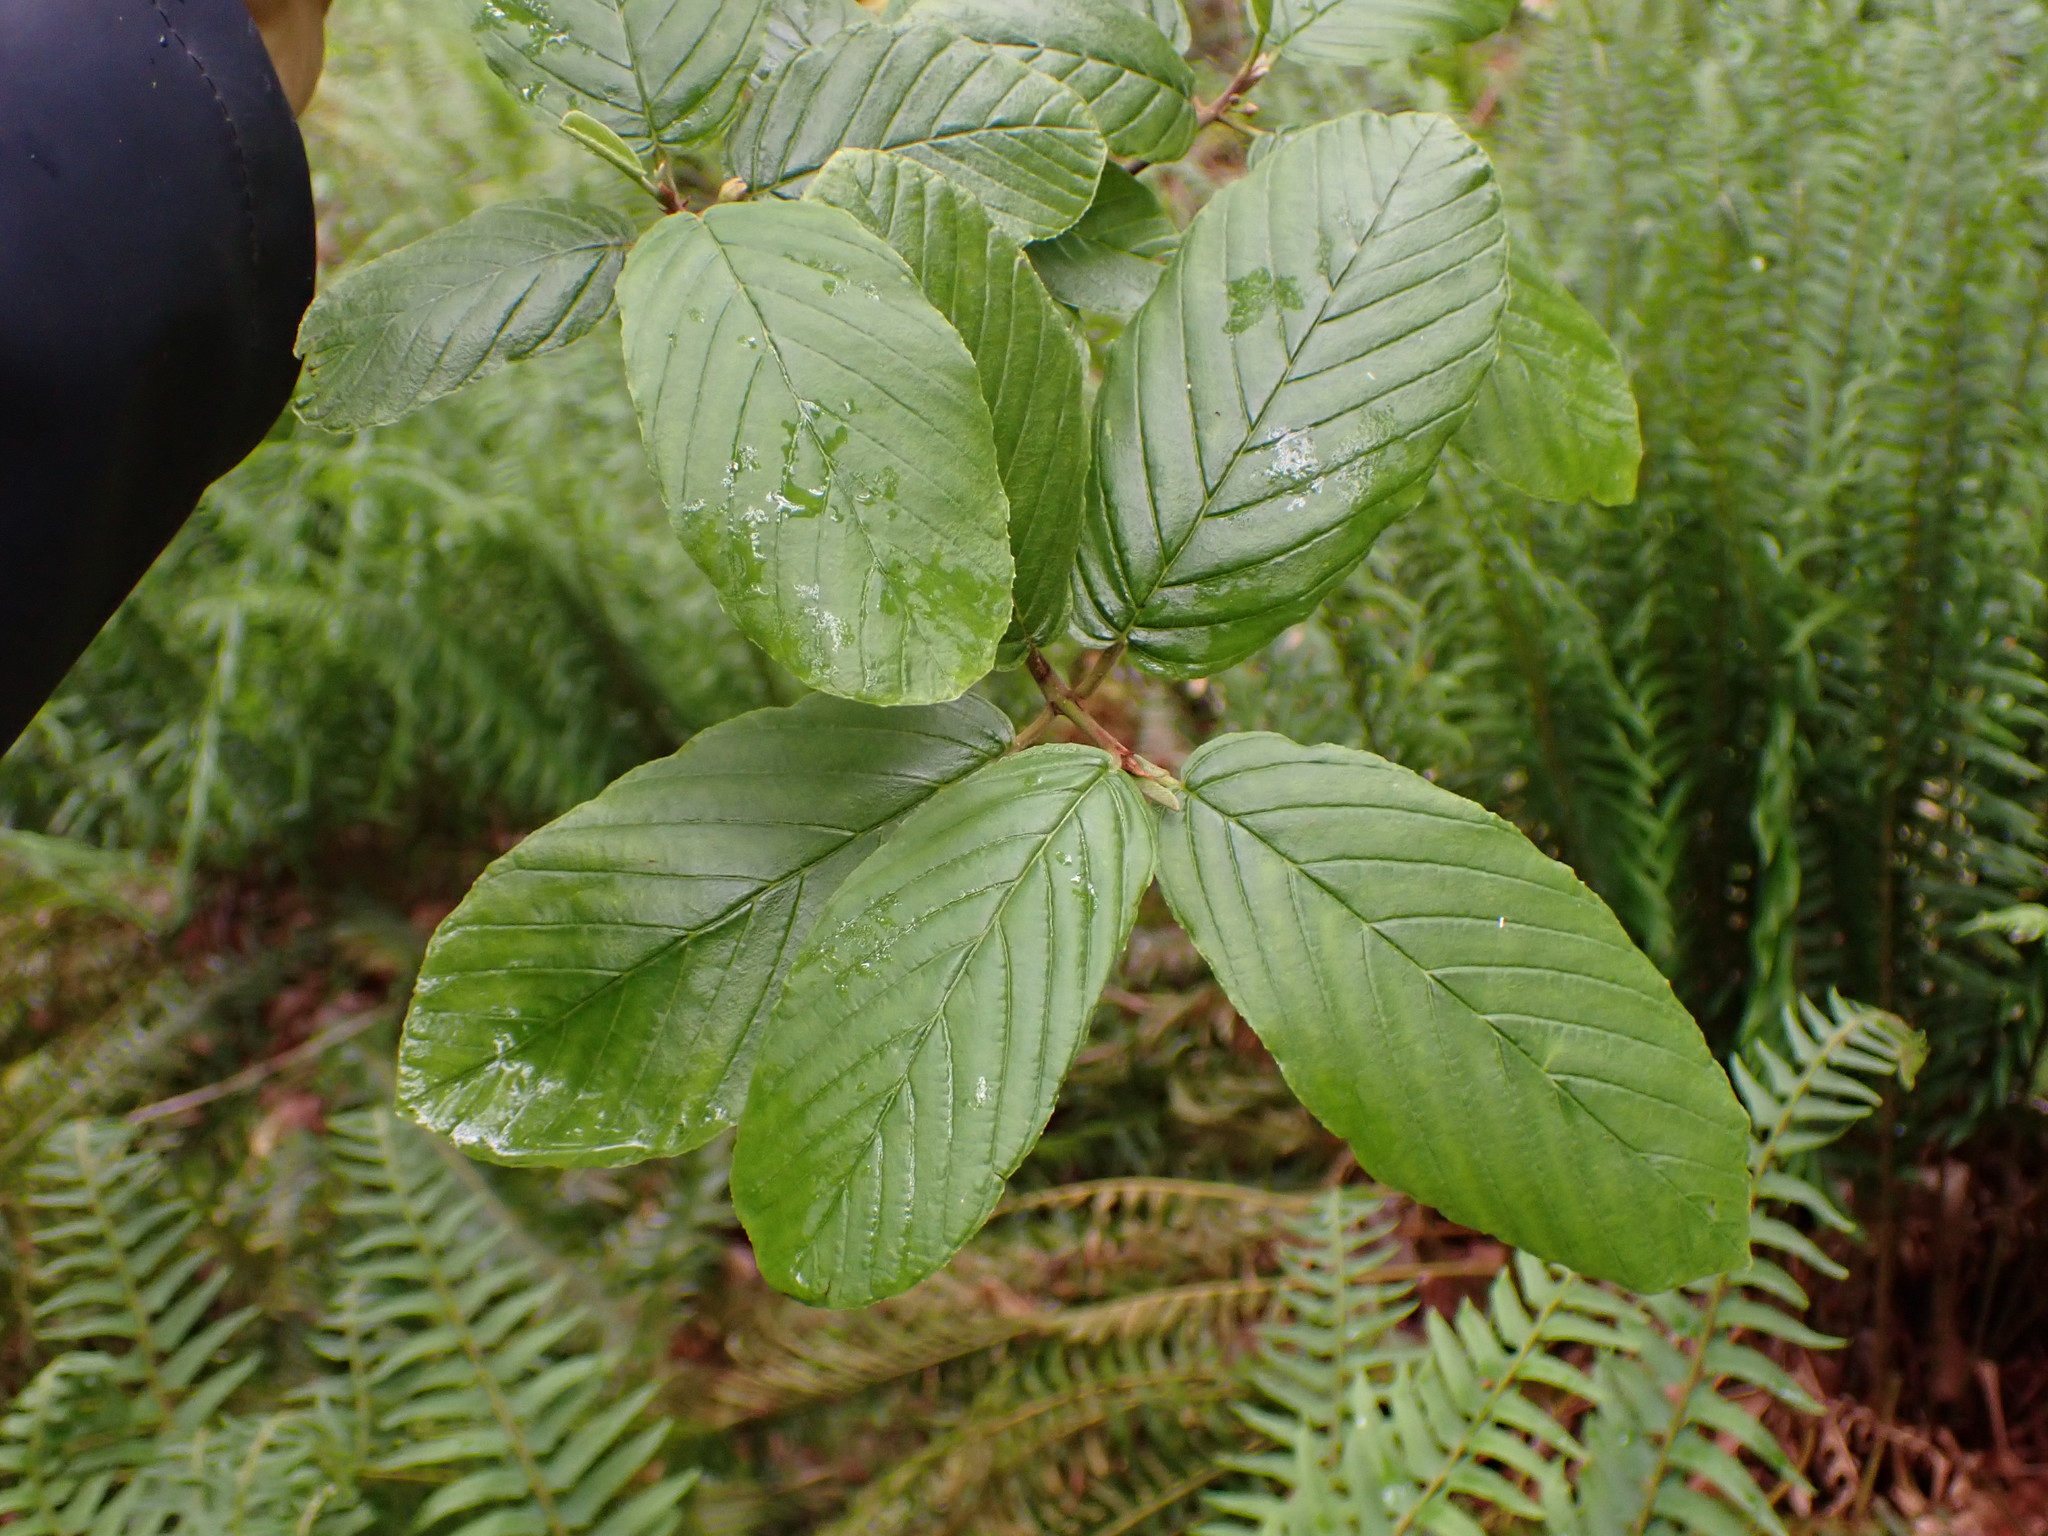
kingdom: Plantae
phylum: Tracheophyta
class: Magnoliopsida
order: Rosales
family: Rhamnaceae
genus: Frangula
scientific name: Frangula purshiana
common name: Cascara buckthorn
